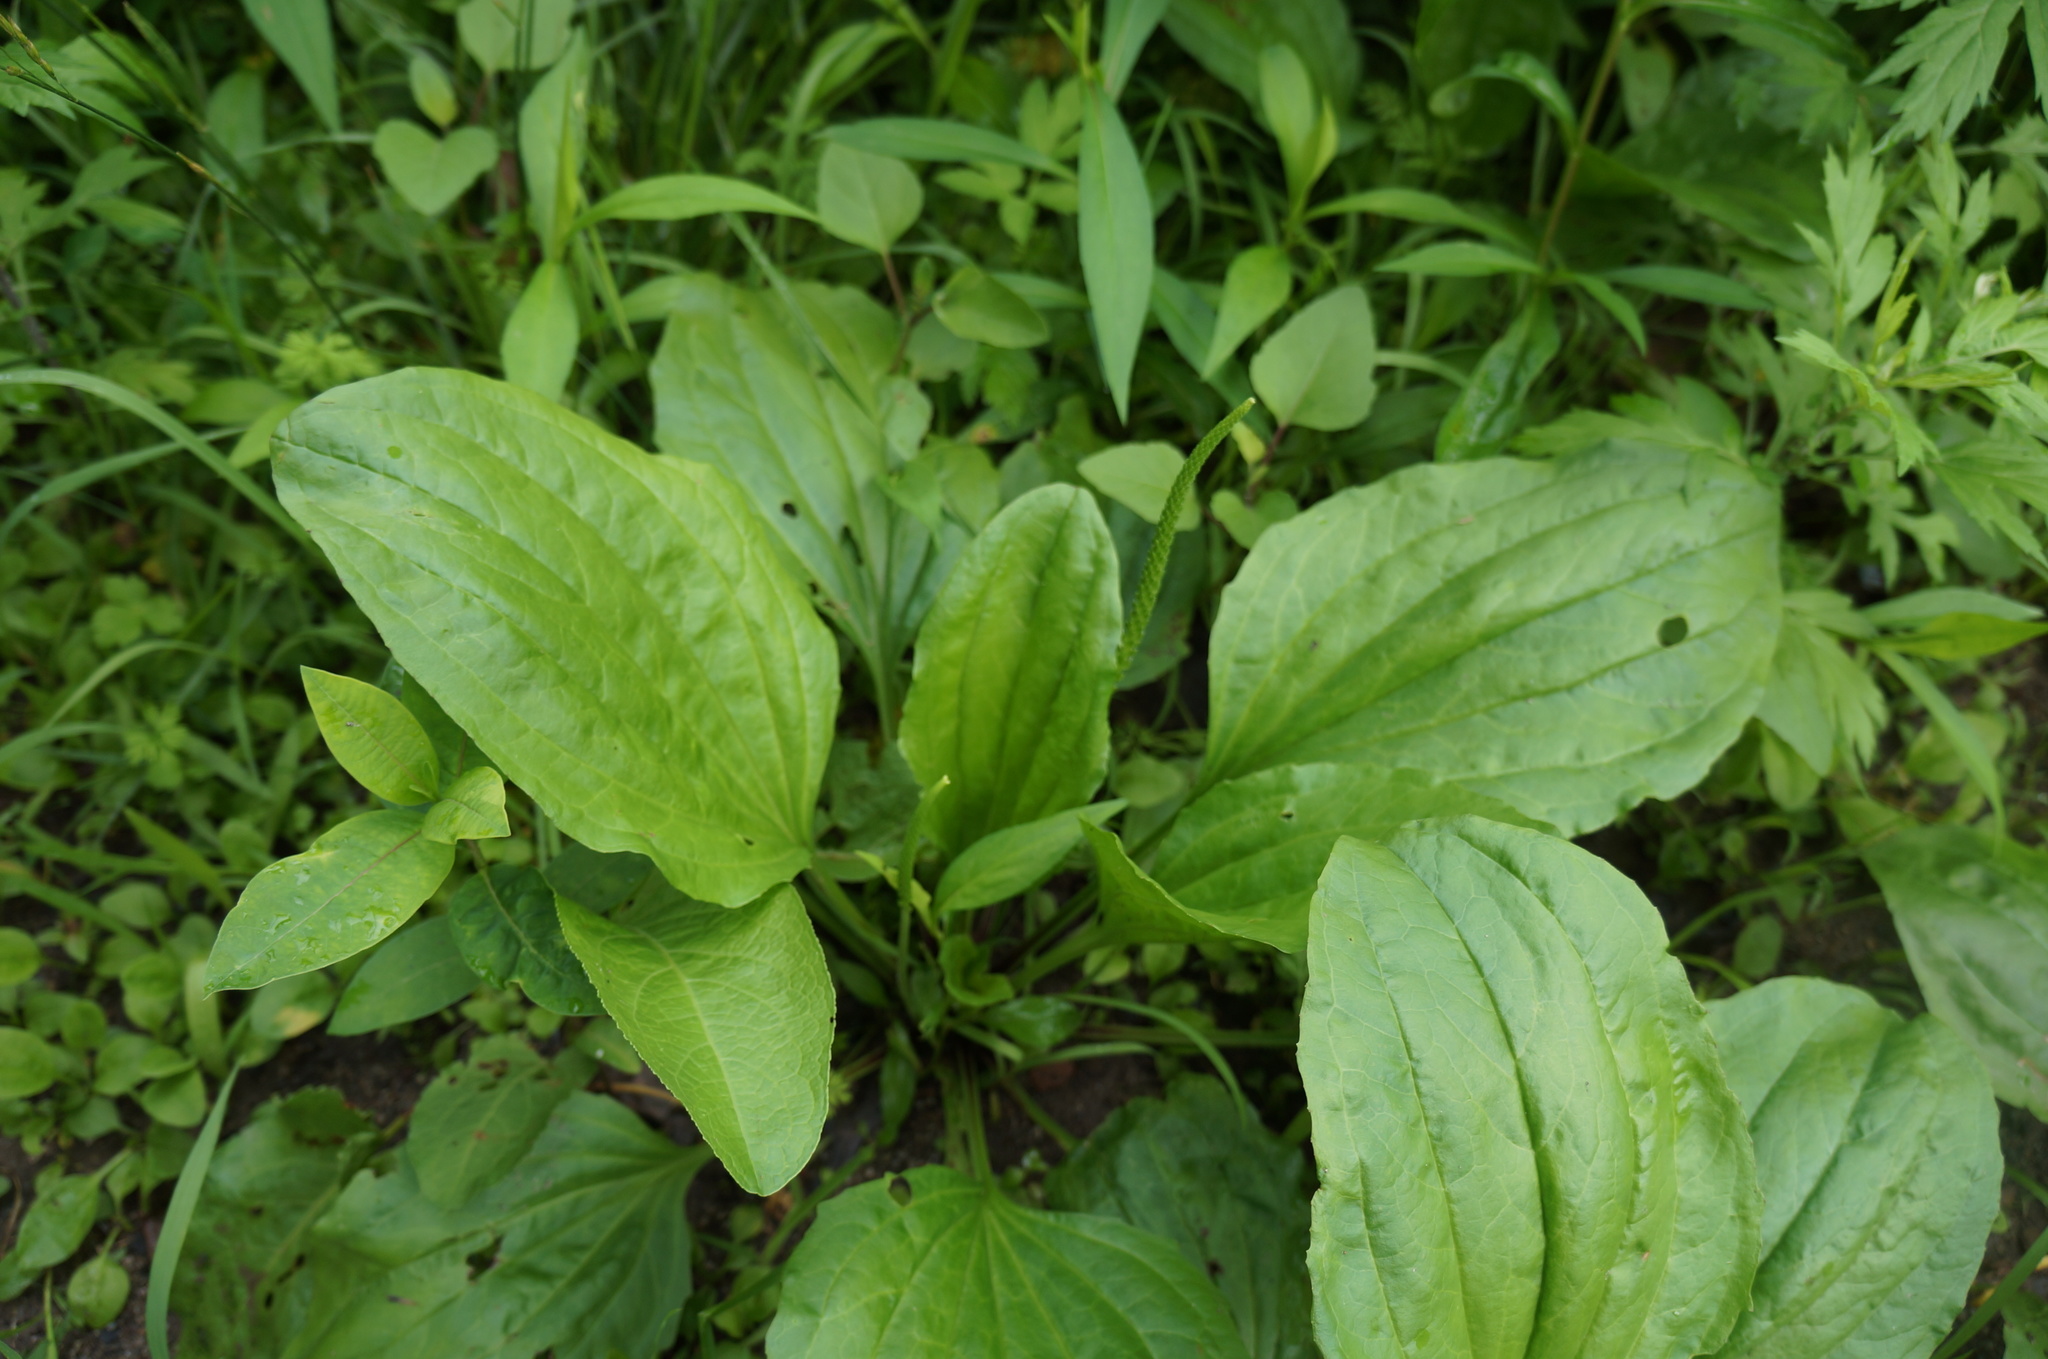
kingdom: Plantae
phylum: Tracheophyta
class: Magnoliopsida
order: Lamiales
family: Plantaginaceae
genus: Plantago
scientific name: Plantago major
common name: Common plantain
